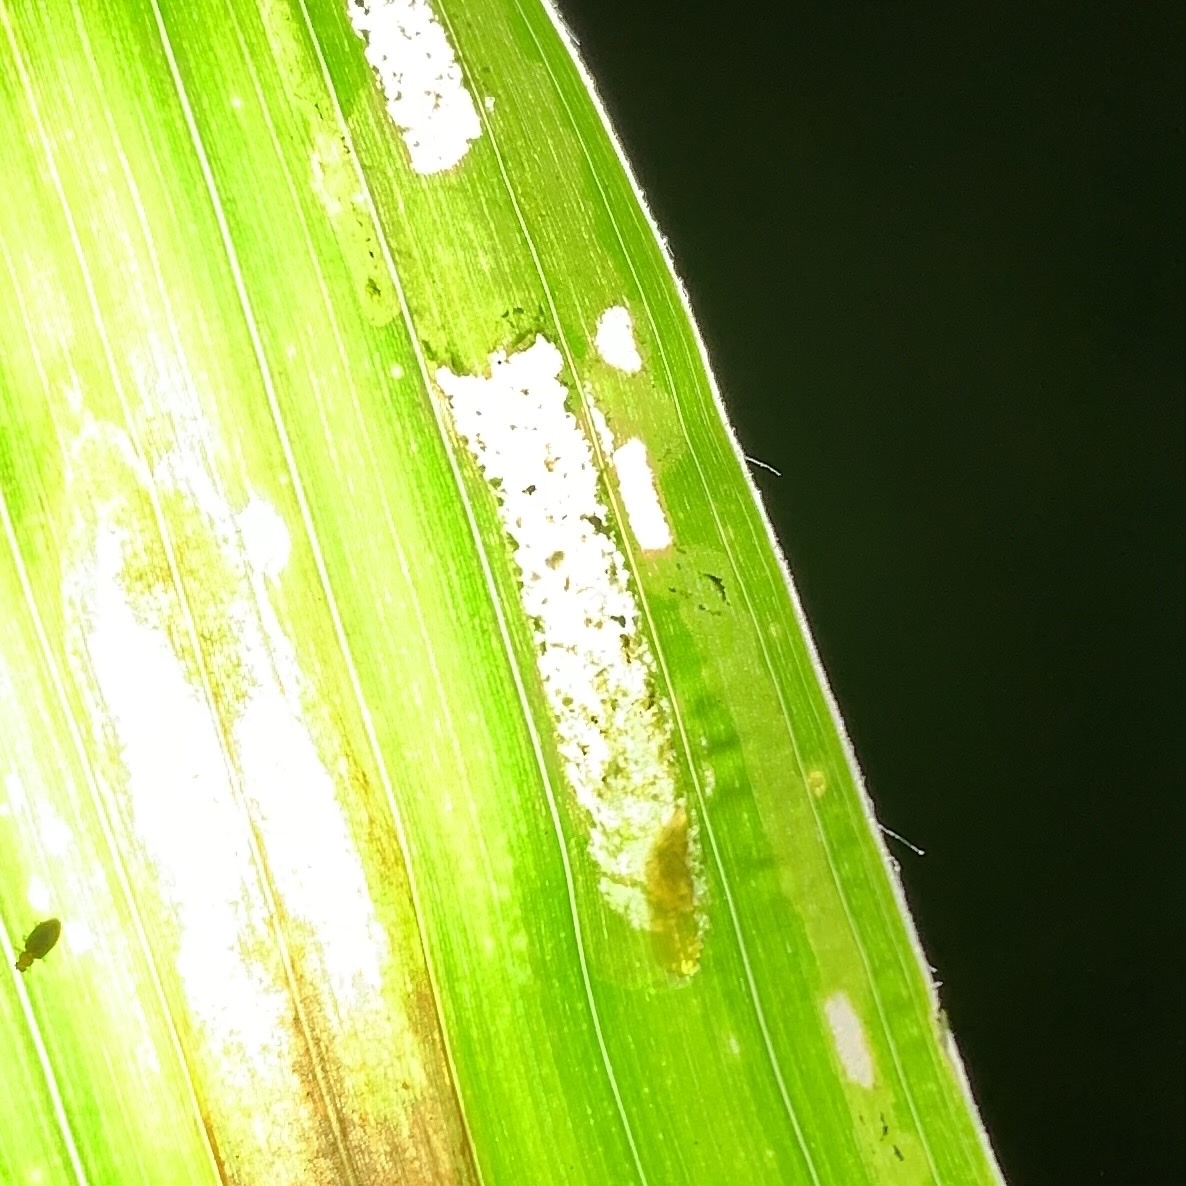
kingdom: Animalia
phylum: Arthropoda
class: Insecta
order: Diptera
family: Agromyzidae
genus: Agromyza
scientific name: Agromyza parvicornis
